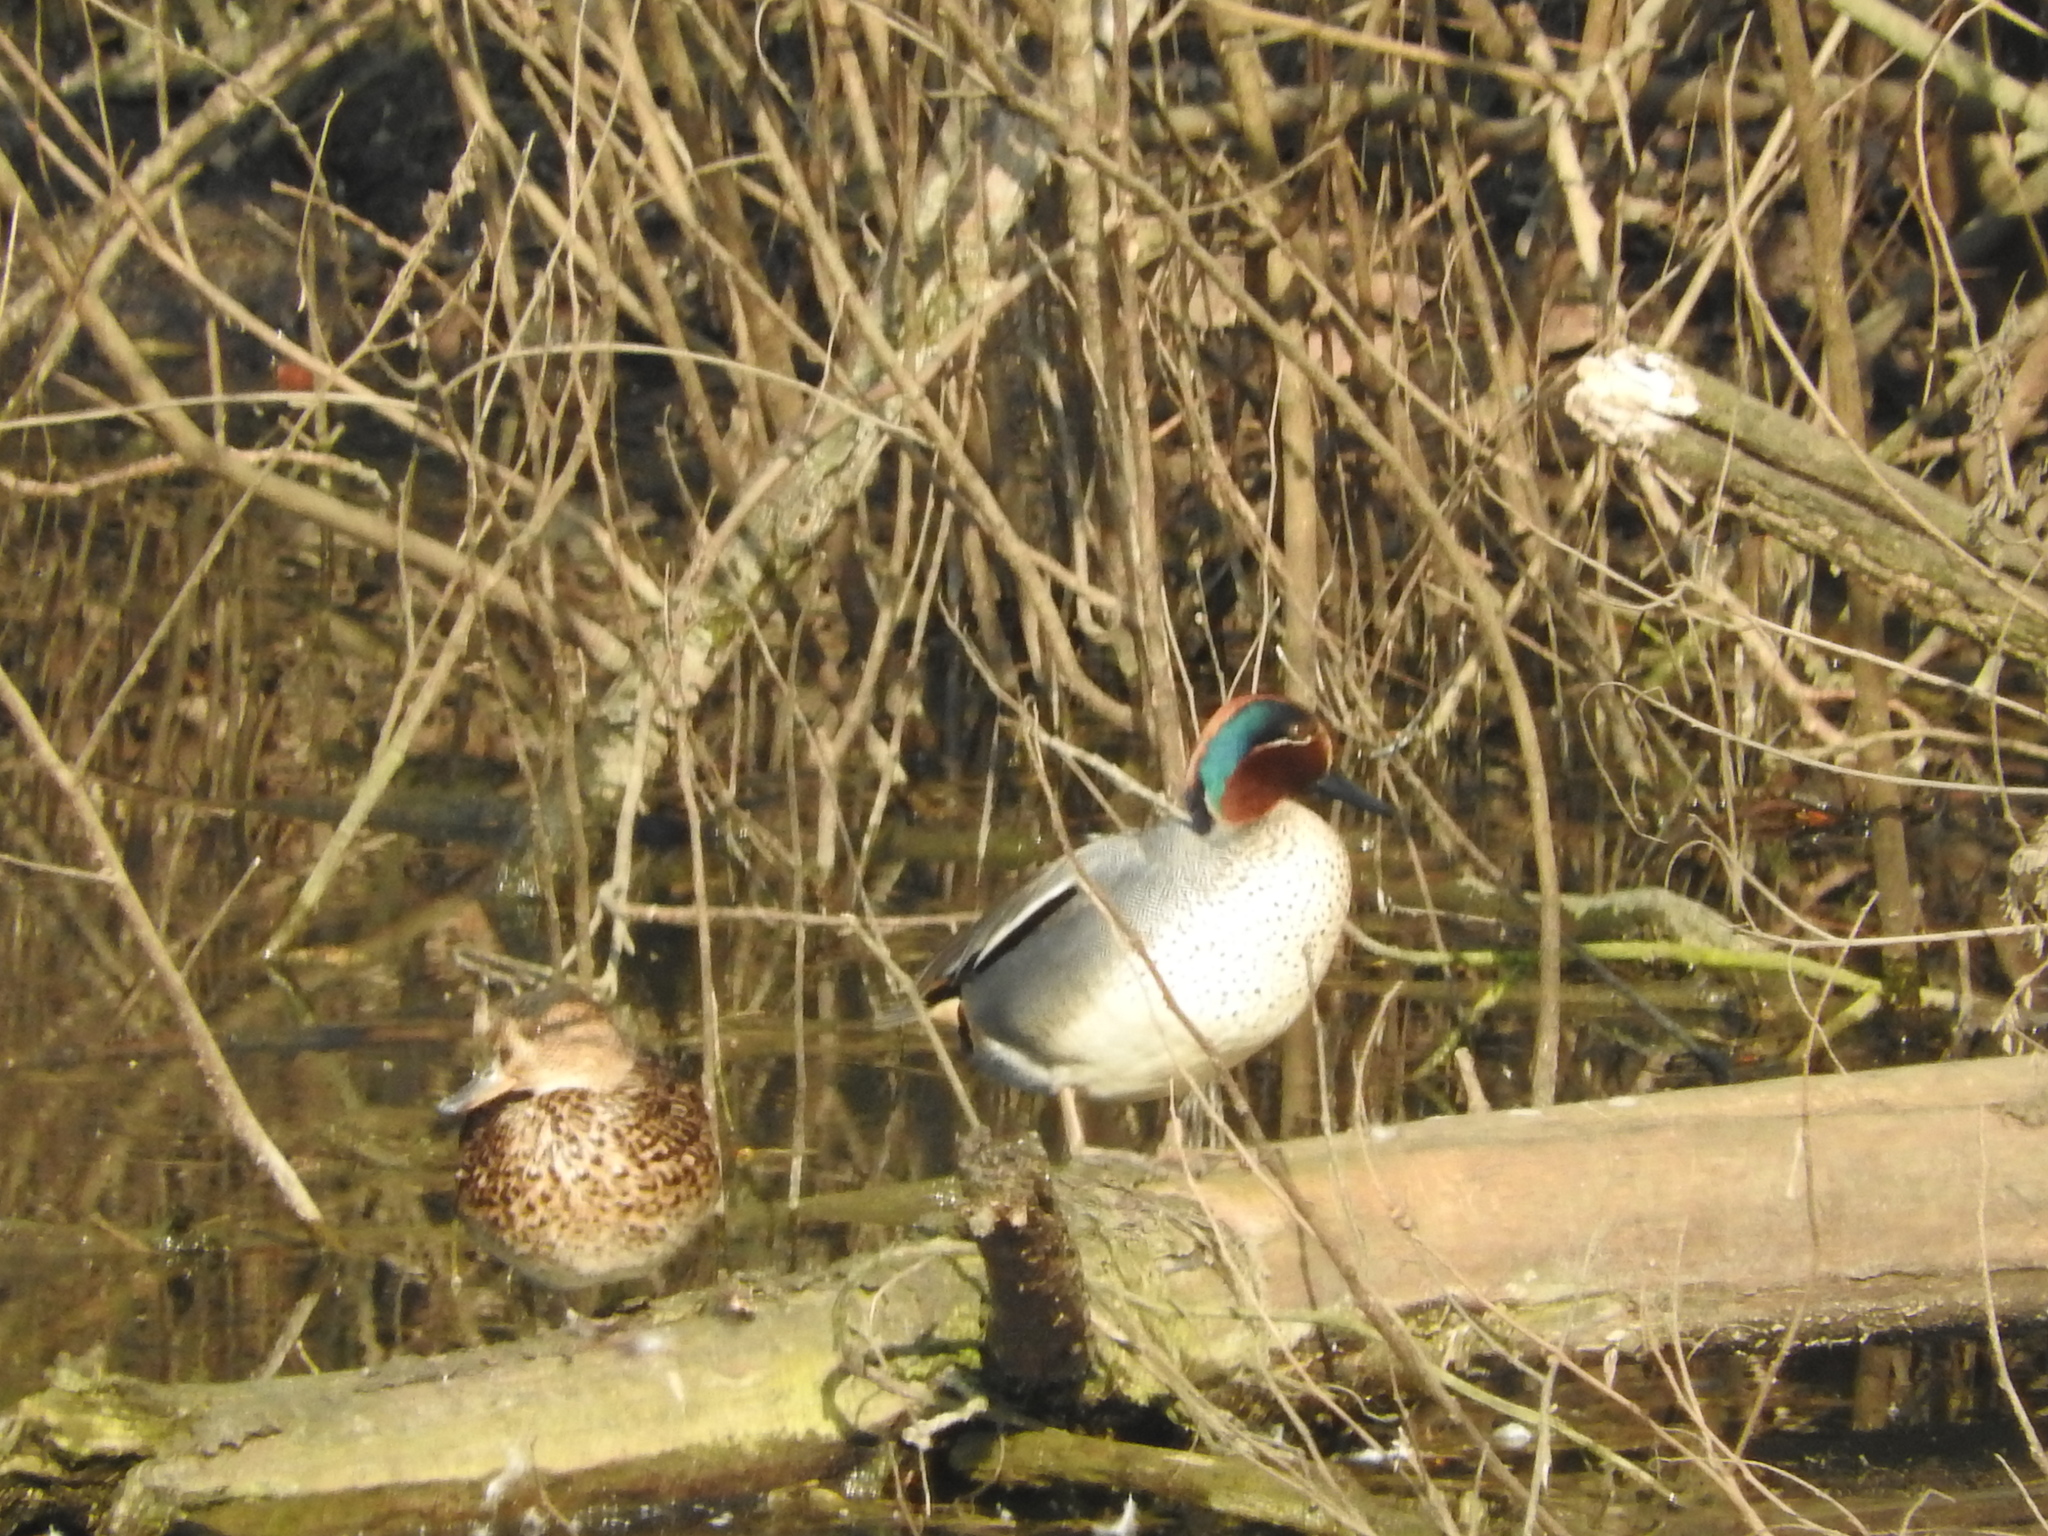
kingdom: Animalia
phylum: Chordata
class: Aves
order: Anseriformes
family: Anatidae
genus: Anas
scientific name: Anas crecca
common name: Eurasian teal
